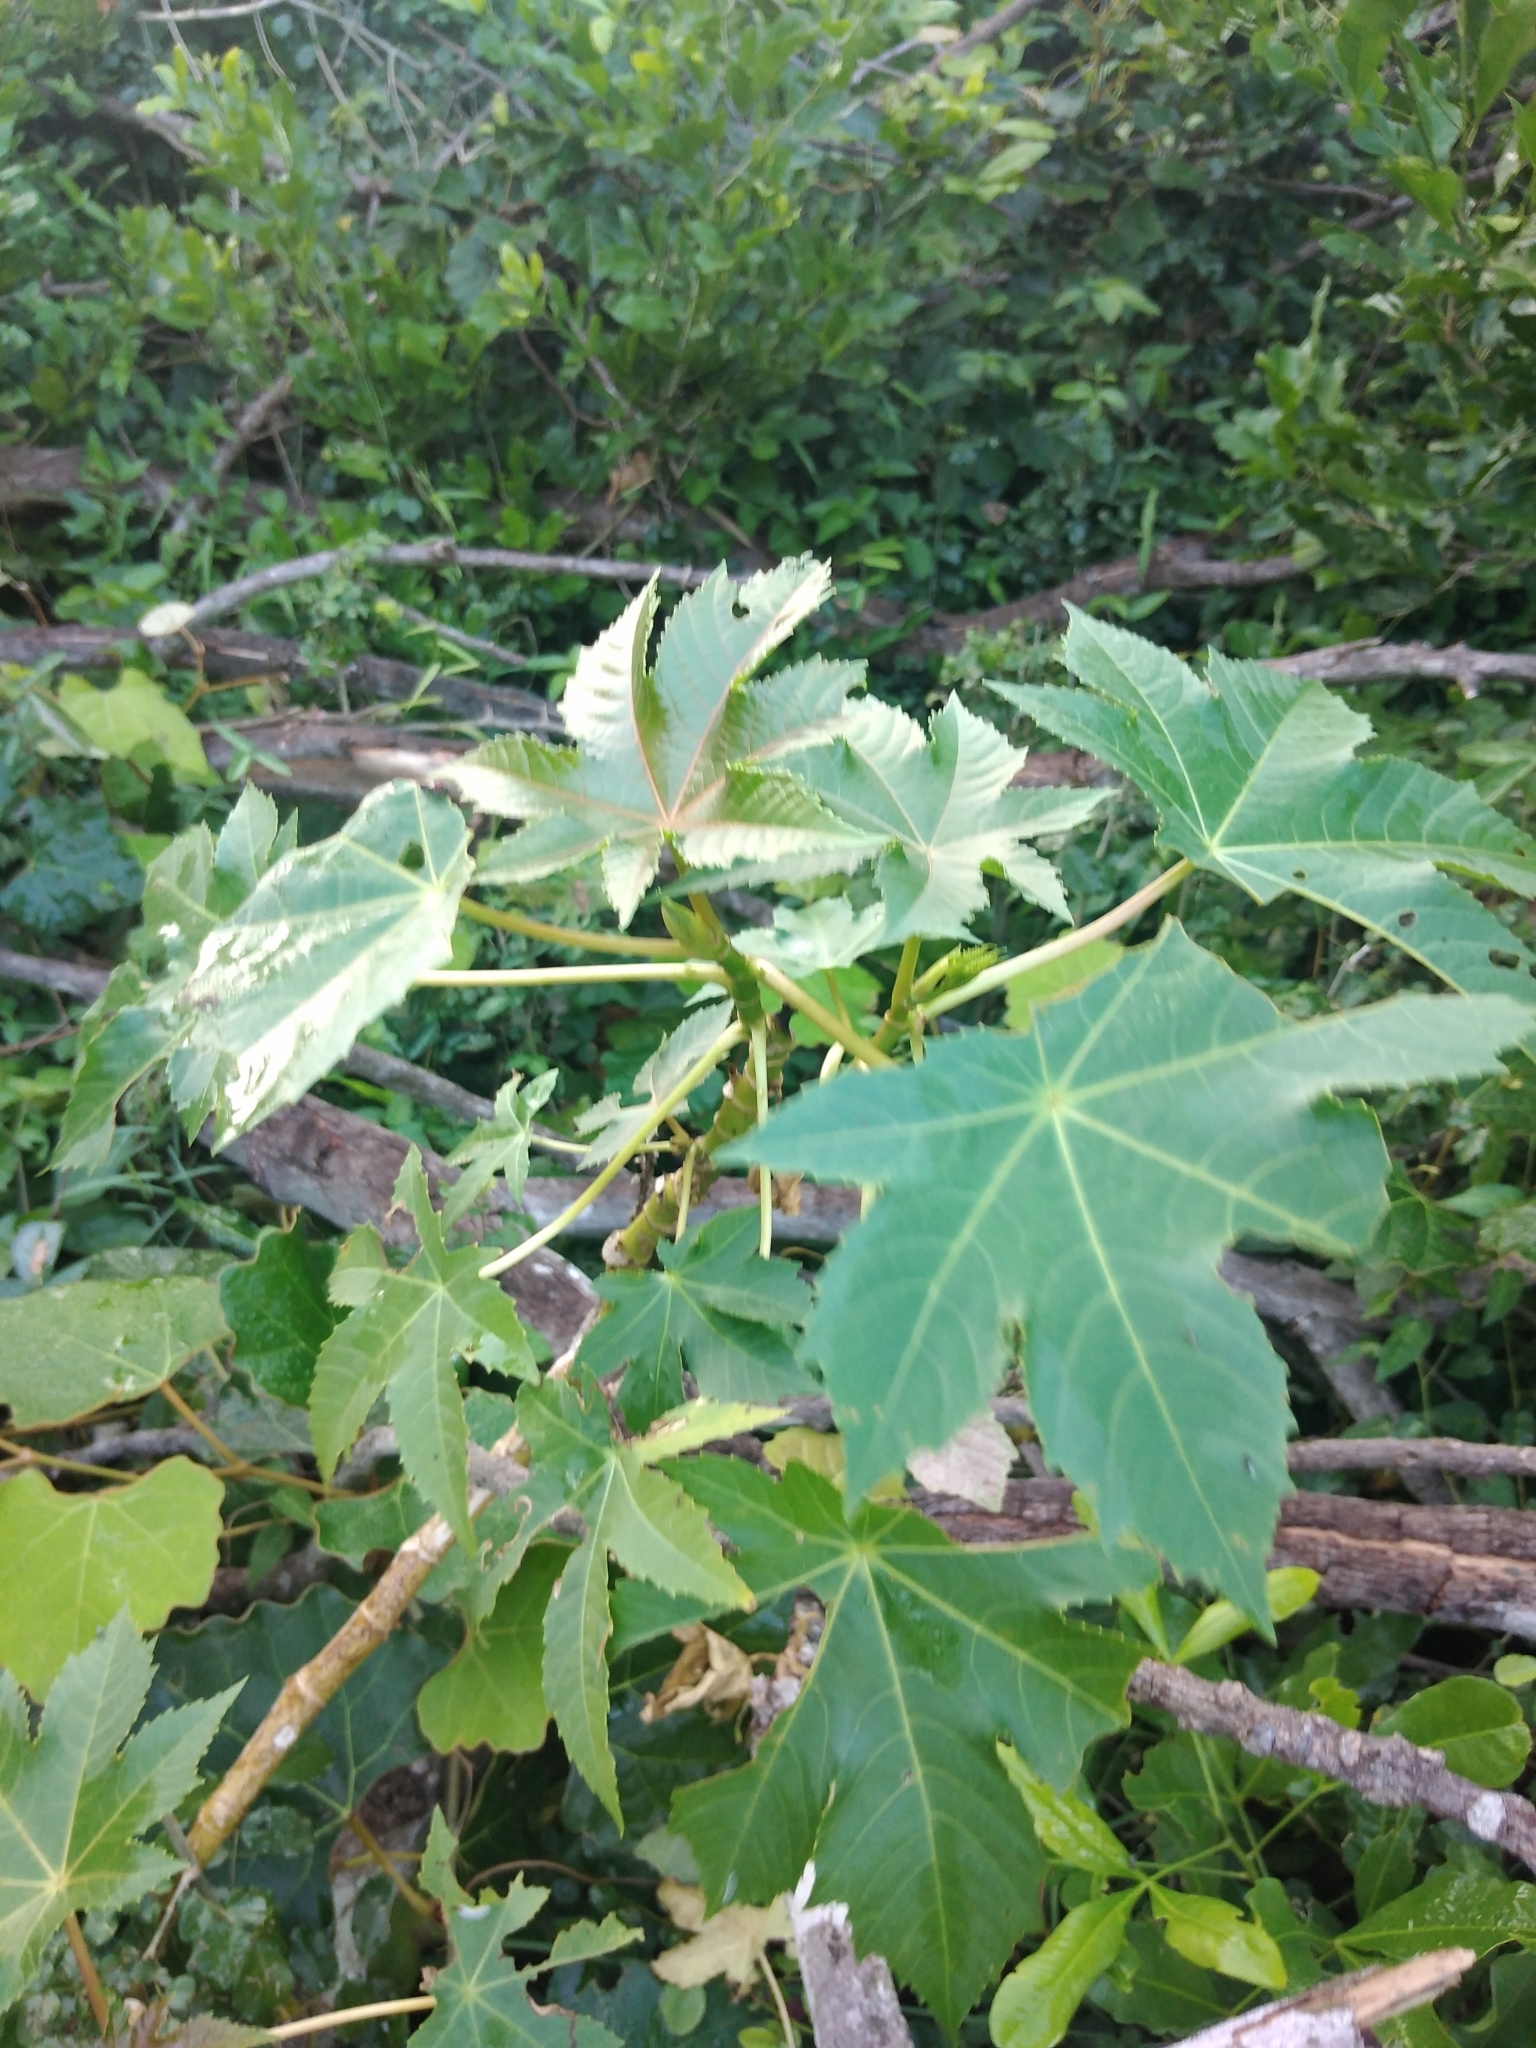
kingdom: Plantae
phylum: Tracheophyta
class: Magnoliopsida
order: Malpighiales
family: Euphorbiaceae
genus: Ricinus
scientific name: Ricinus communis
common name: Castor-oil-plant
